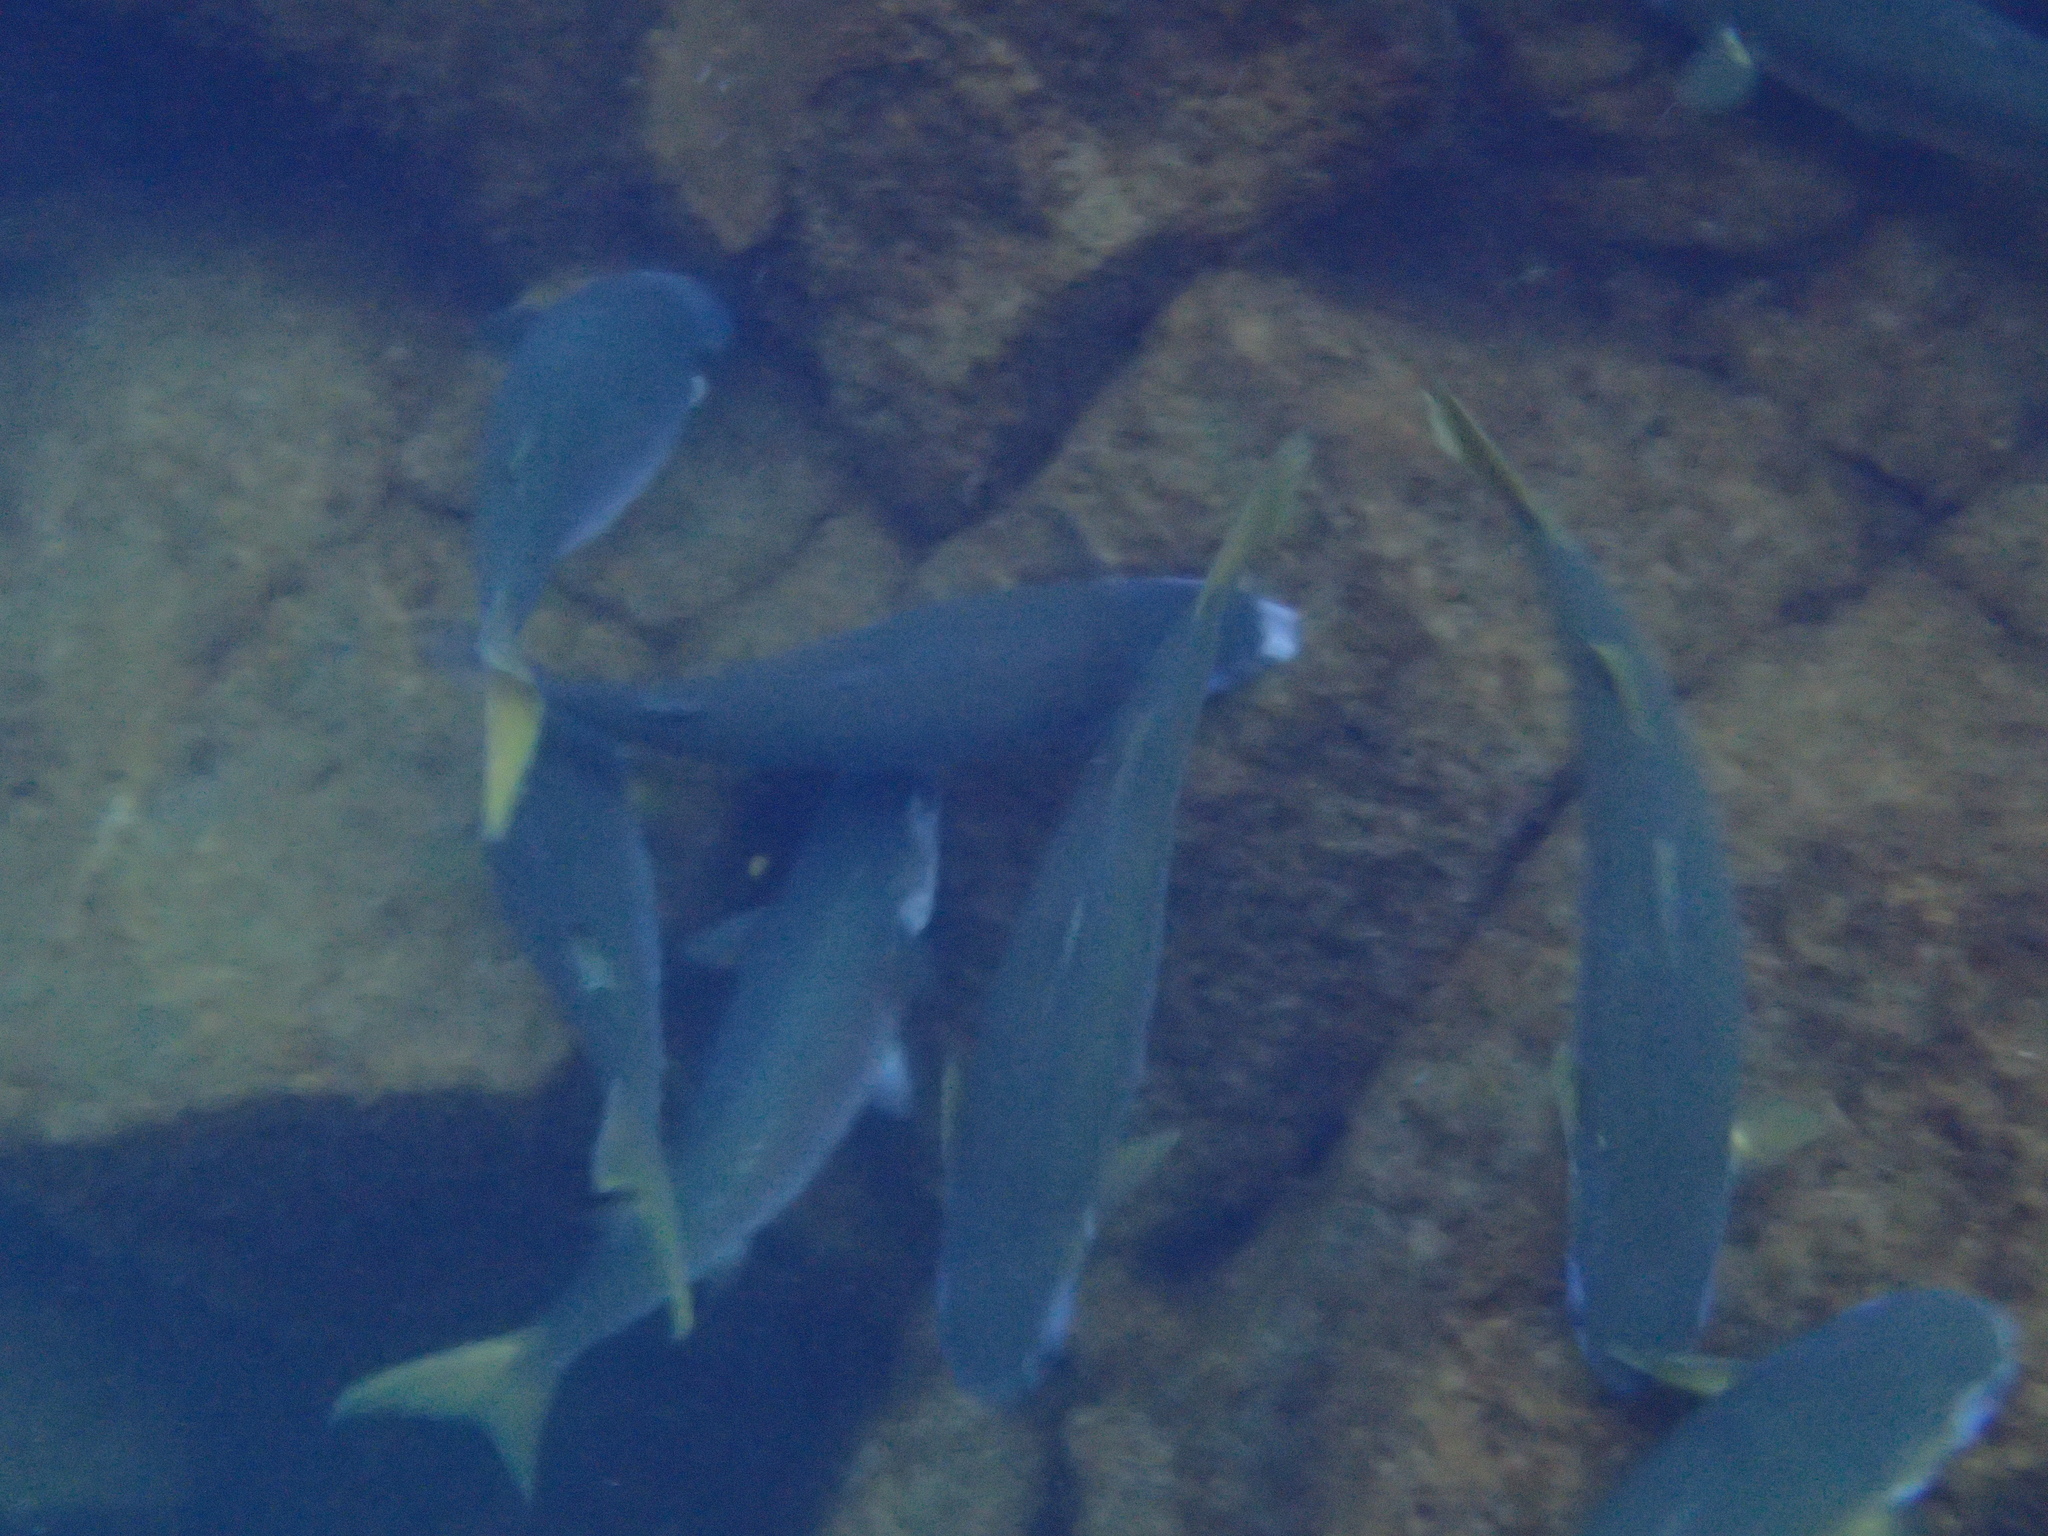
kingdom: Animalia
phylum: Chordata
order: Mugiliformes
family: Mugilidae
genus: Mugil
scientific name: Mugil cephalus
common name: Grey mullet
